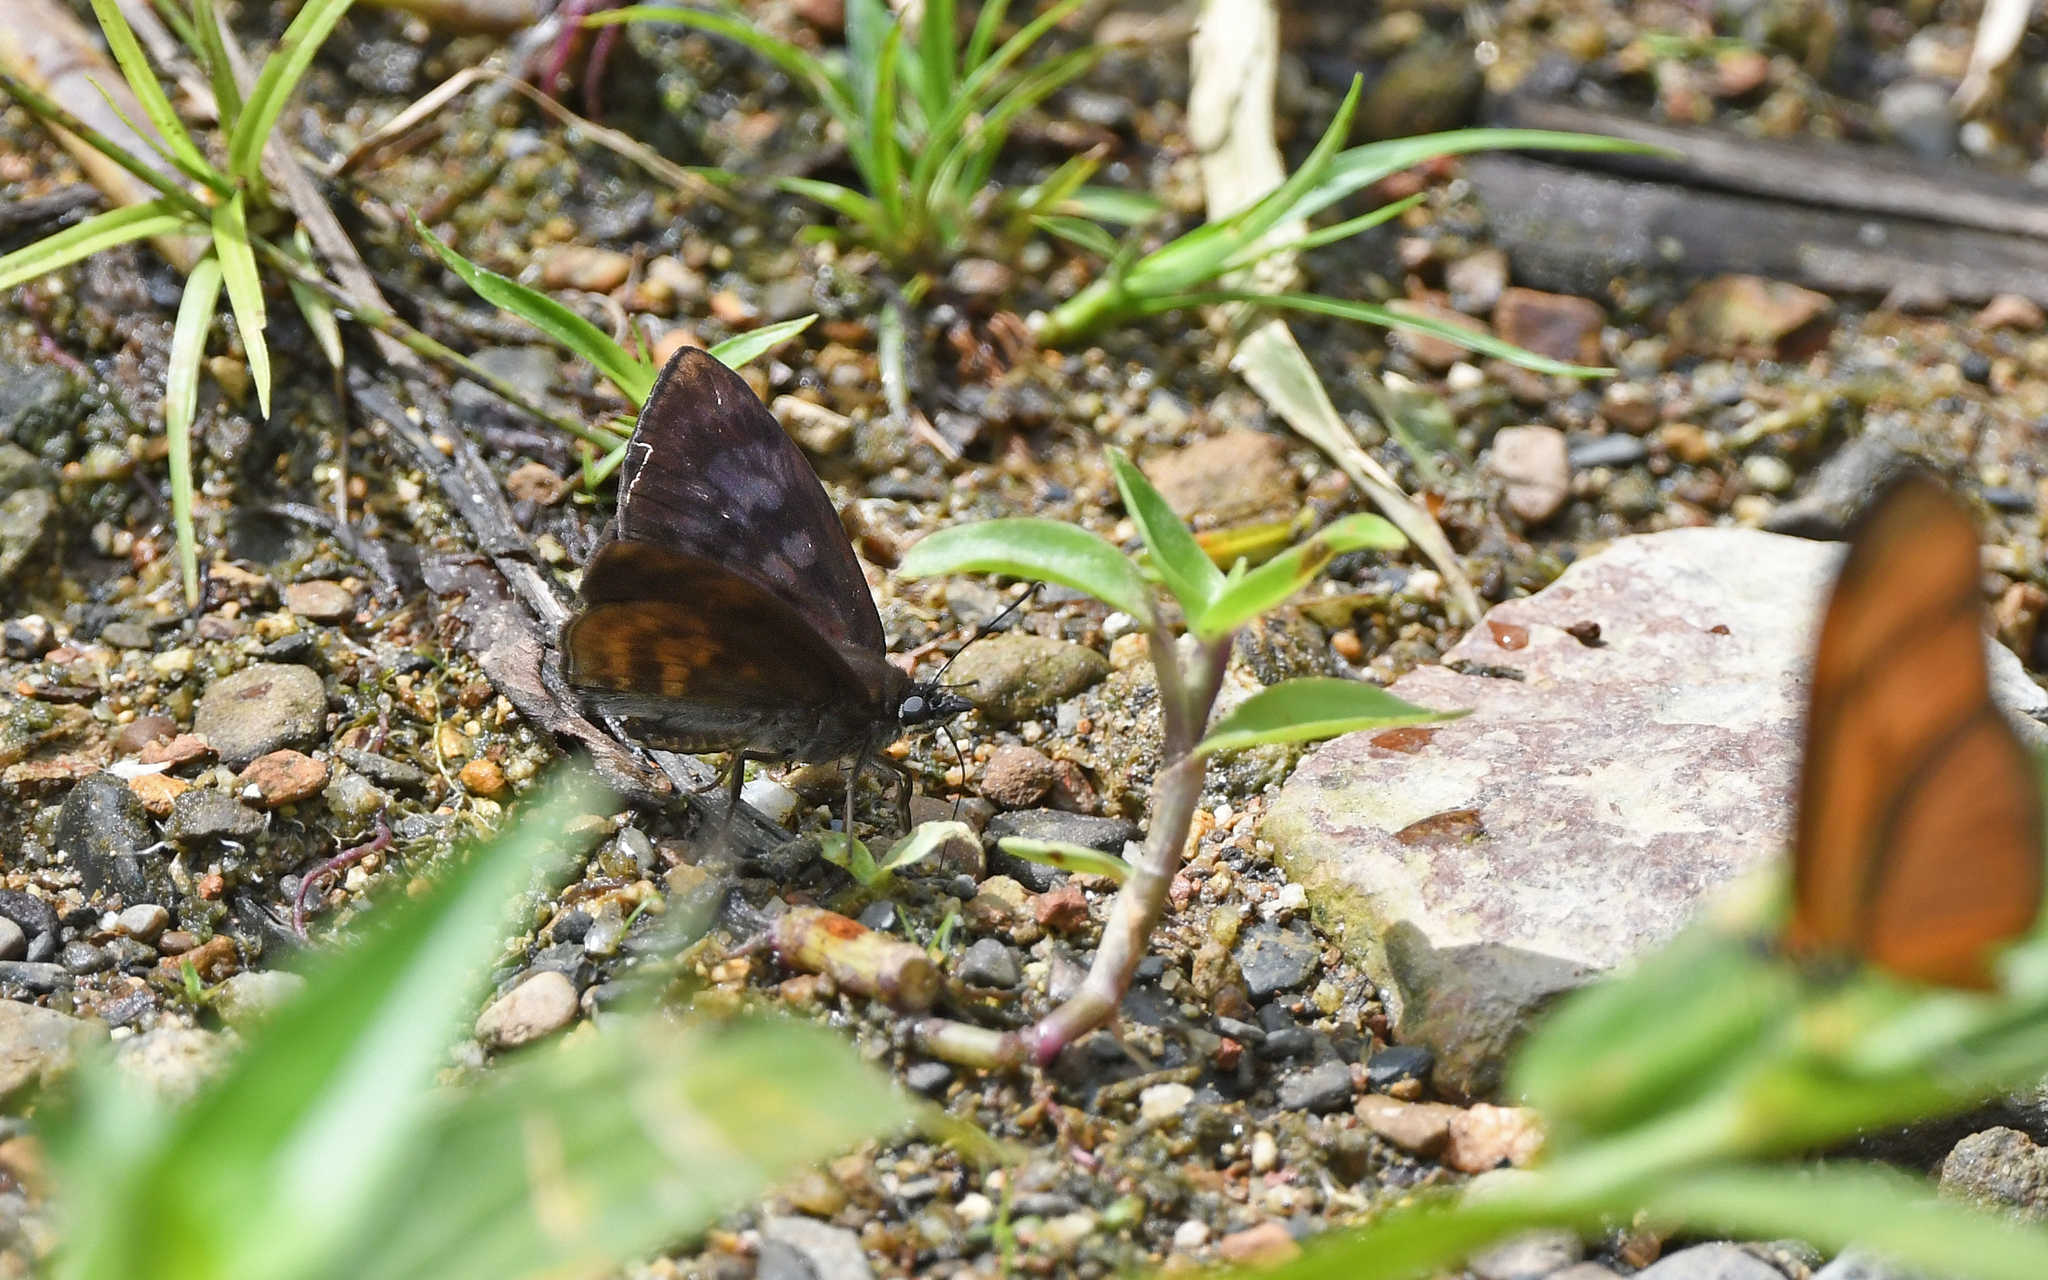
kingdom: Animalia
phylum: Arthropoda
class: Insecta
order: Lepidoptera
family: Hesperiidae
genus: Iliana
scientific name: Iliana heros
